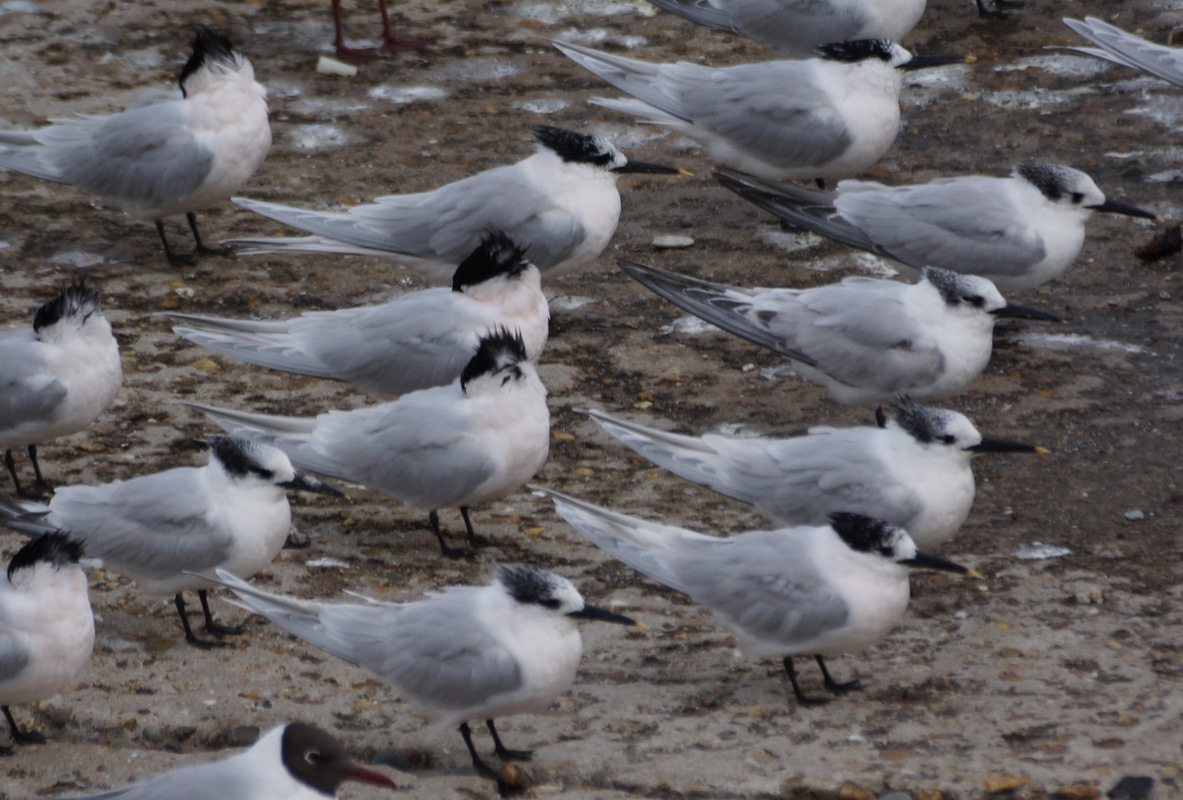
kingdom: Animalia
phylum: Chordata
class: Aves
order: Charadriiformes
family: Laridae
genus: Thalasseus
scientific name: Thalasseus sandvicensis
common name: Sandwich tern
